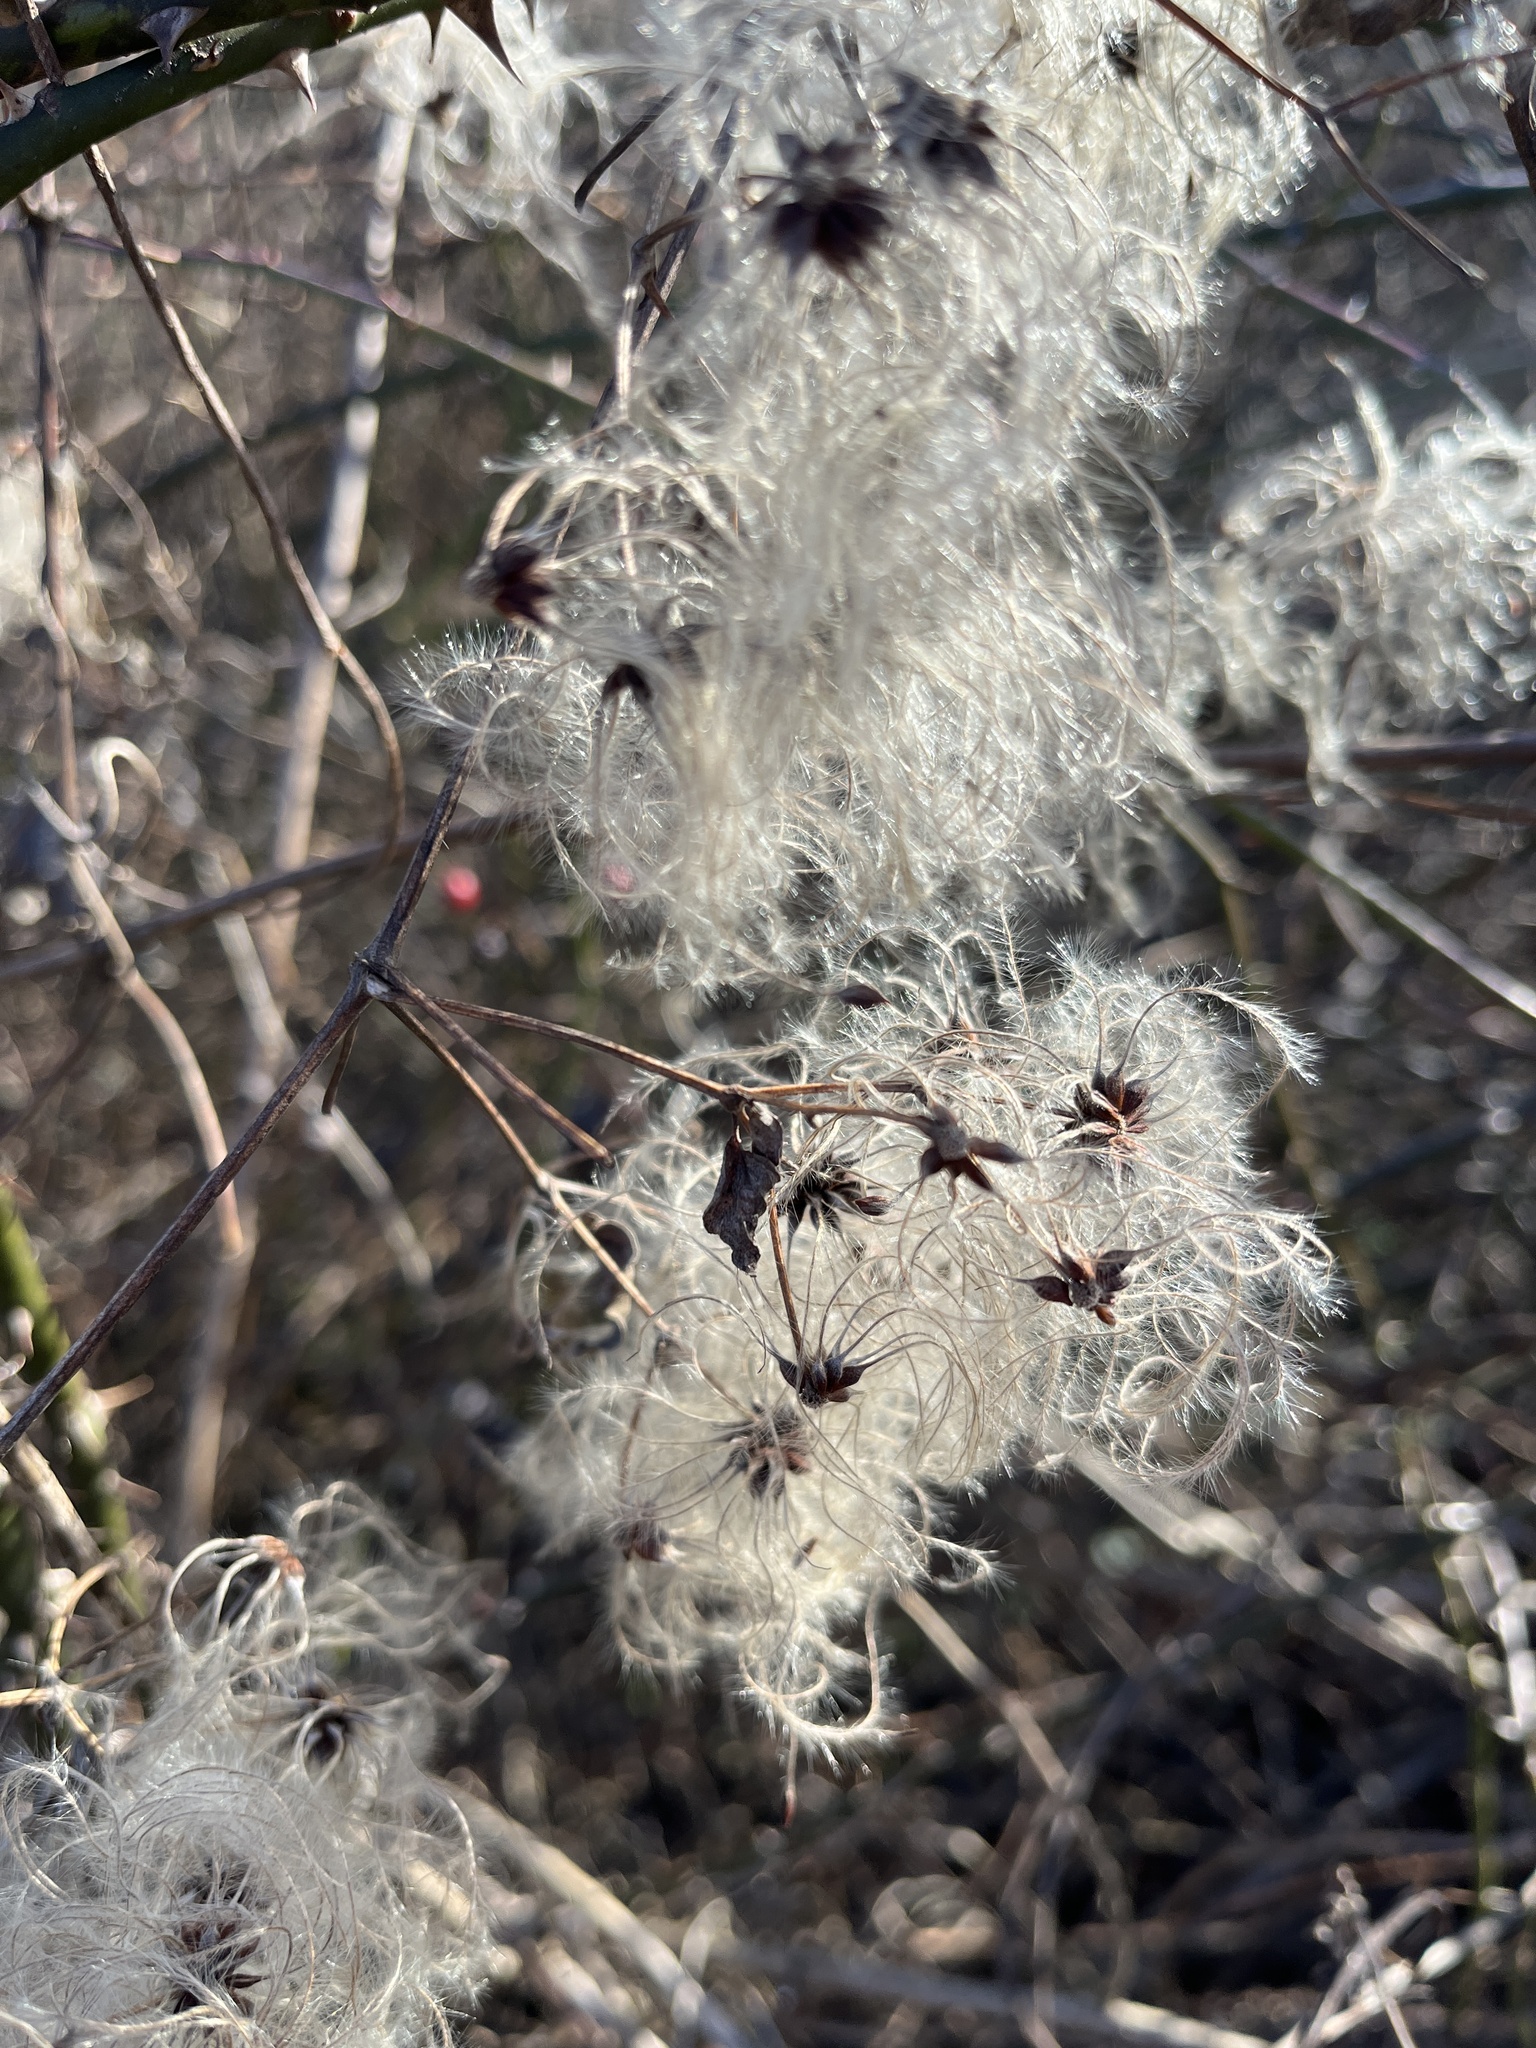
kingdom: Plantae
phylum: Tracheophyta
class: Magnoliopsida
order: Ranunculales
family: Ranunculaceae
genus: Clematis
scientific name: Clematis virginiana
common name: Virgin's-bower
